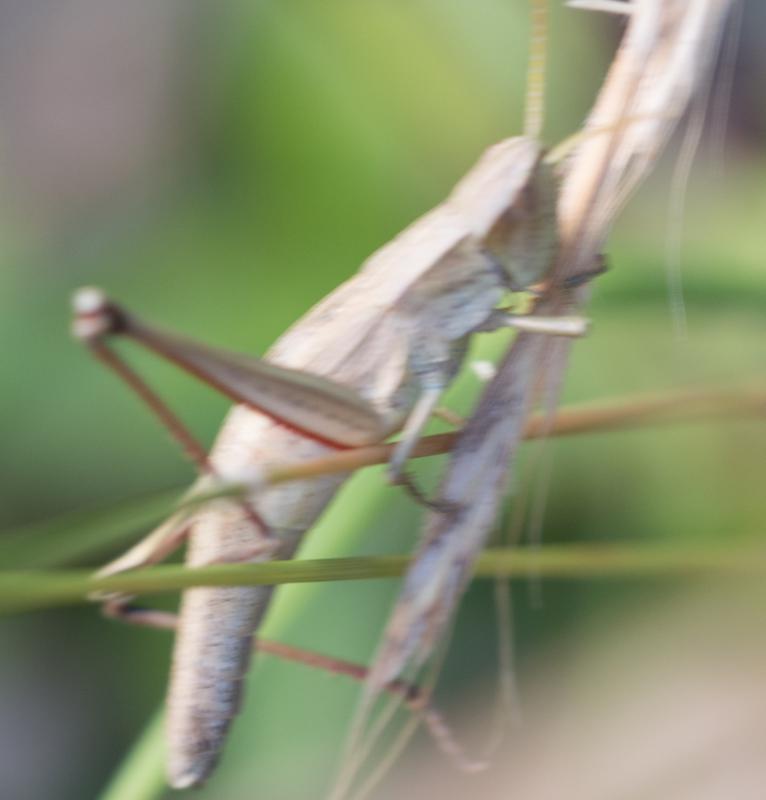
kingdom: Animalia
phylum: Arthropoda
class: Insecta
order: Orthoptera
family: Acrididae
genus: Chrysochraon
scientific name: Chrysochraon dispar
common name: Large gold grasshopper
